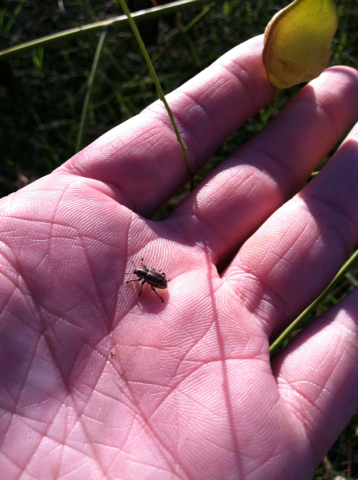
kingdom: Animalia
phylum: Arthropoda
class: Insecta
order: Coleoptera
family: Curculionidae
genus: Eudiagogus
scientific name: Eudiagogus rosenschoeldi
